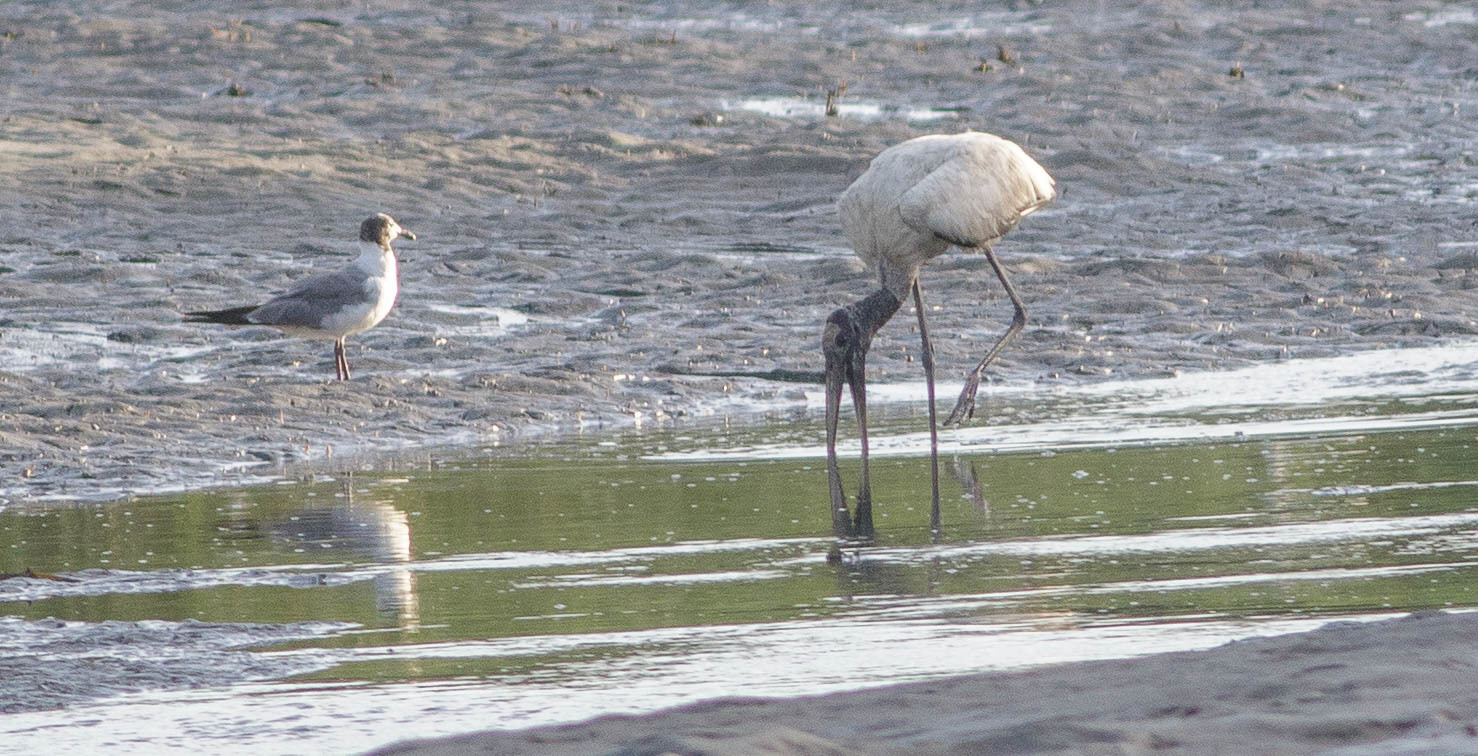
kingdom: Animalia
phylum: Chordata
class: Aves
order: Ciconiiformes
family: Ciconiidae
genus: Mycteria
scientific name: Mycteria americana
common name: Wood stork
